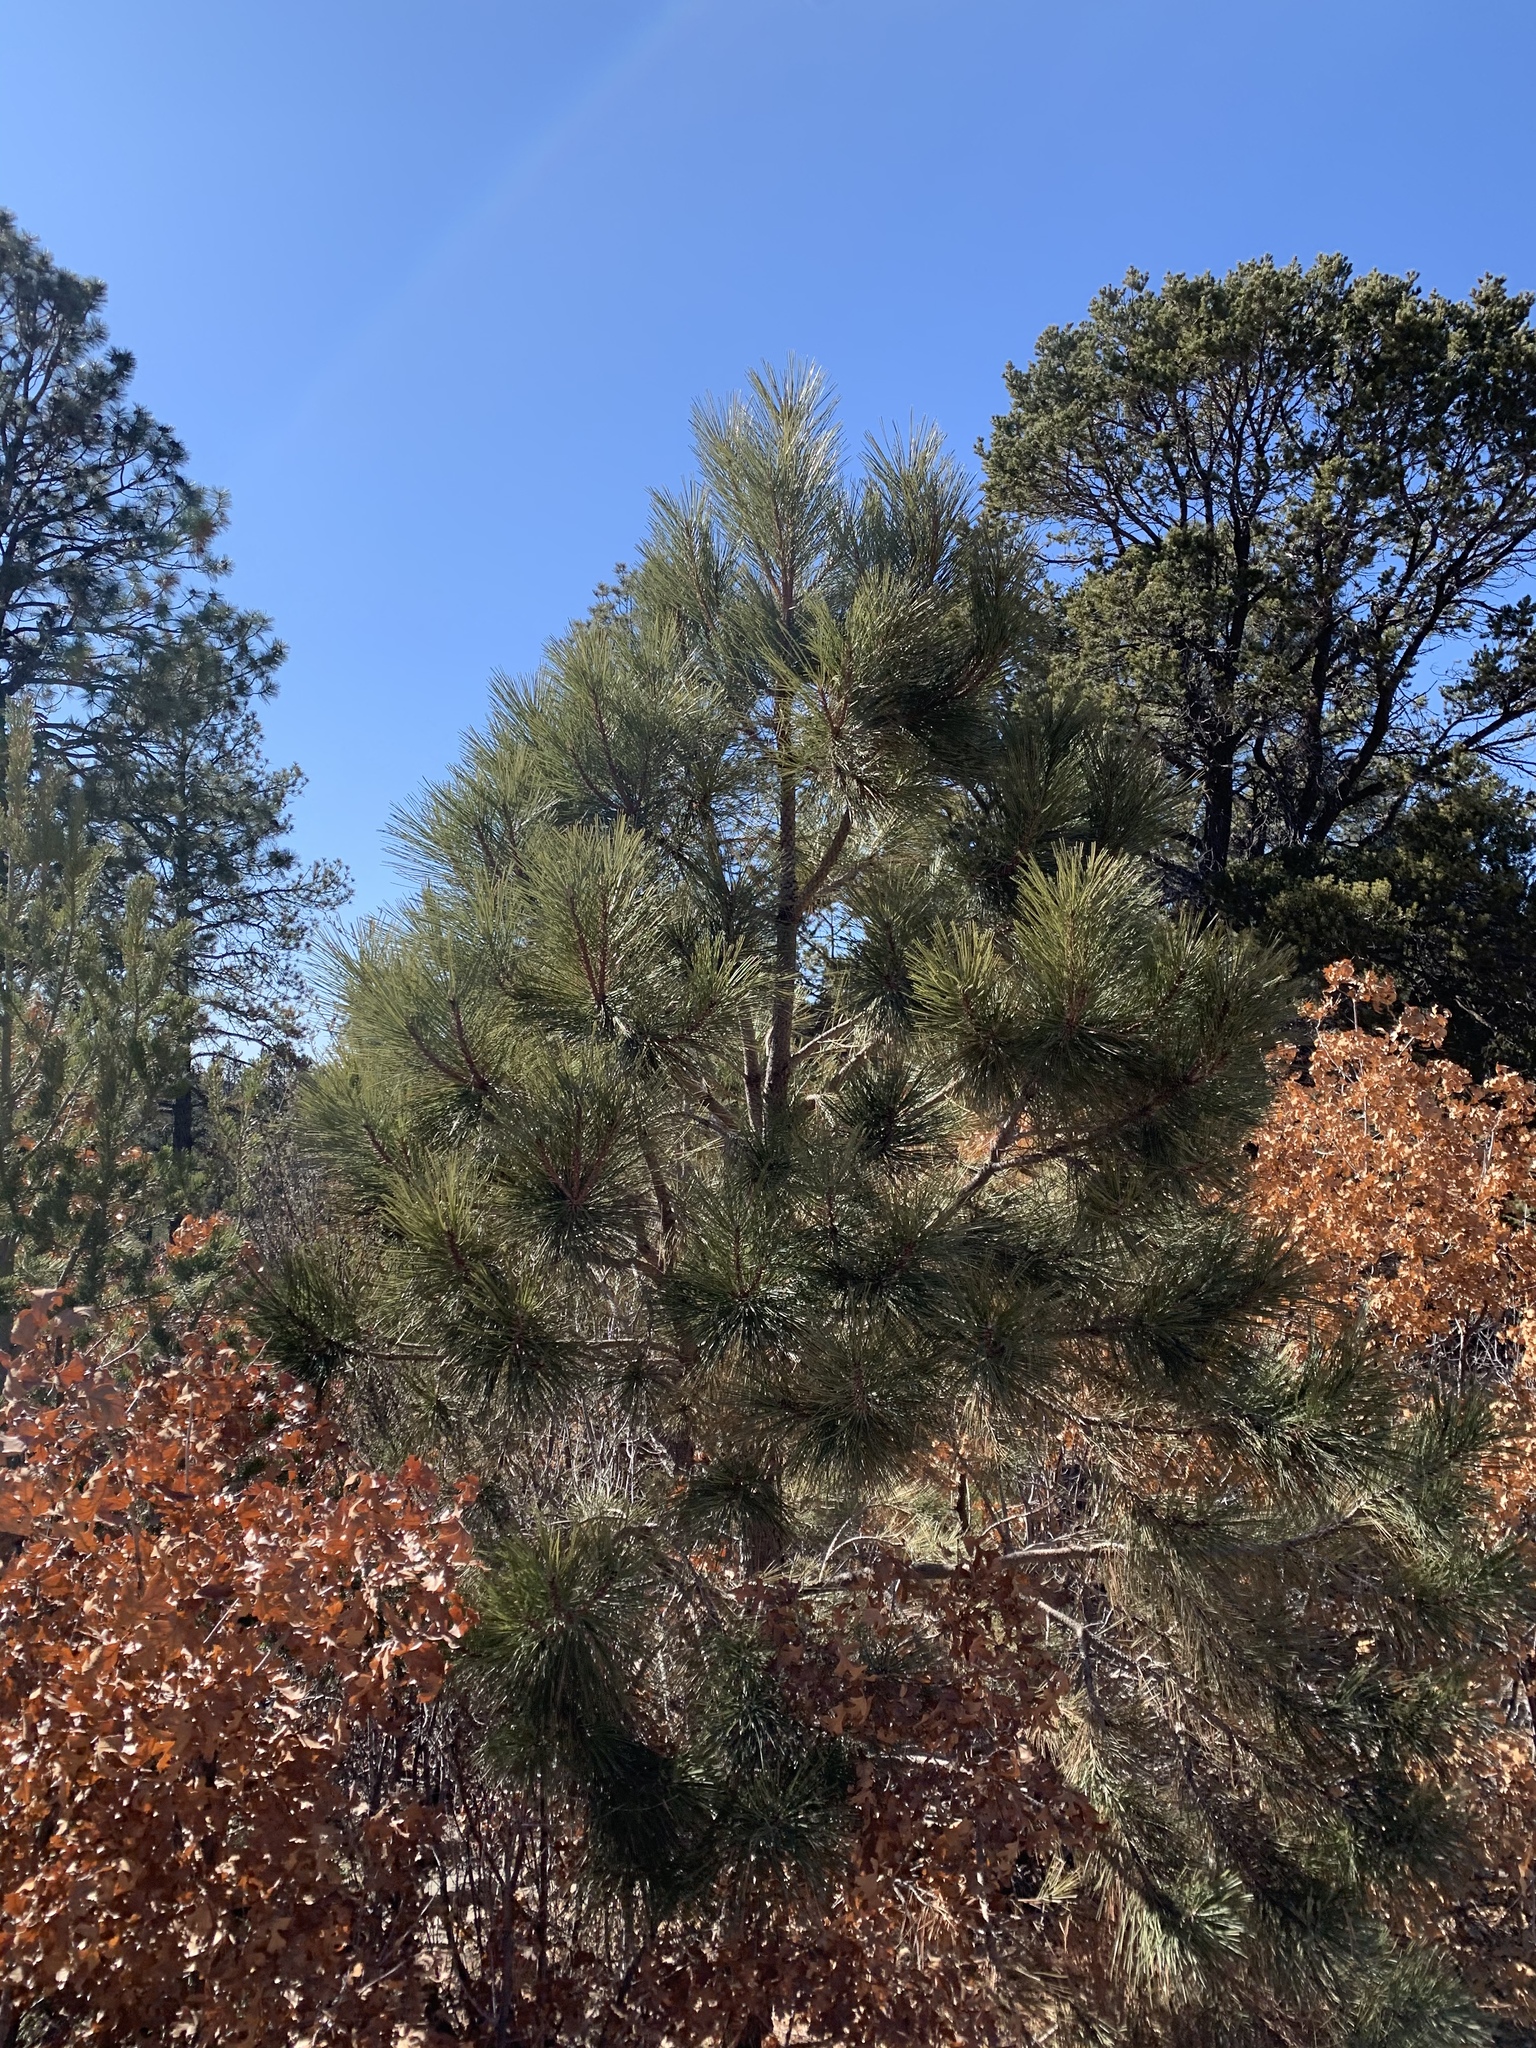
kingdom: Plantae
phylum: Tracheophyta
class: Pinopsida
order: Pinales
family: Pinaceae
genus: Pinus
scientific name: Pinus ponderosa
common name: Western yellow-pine
